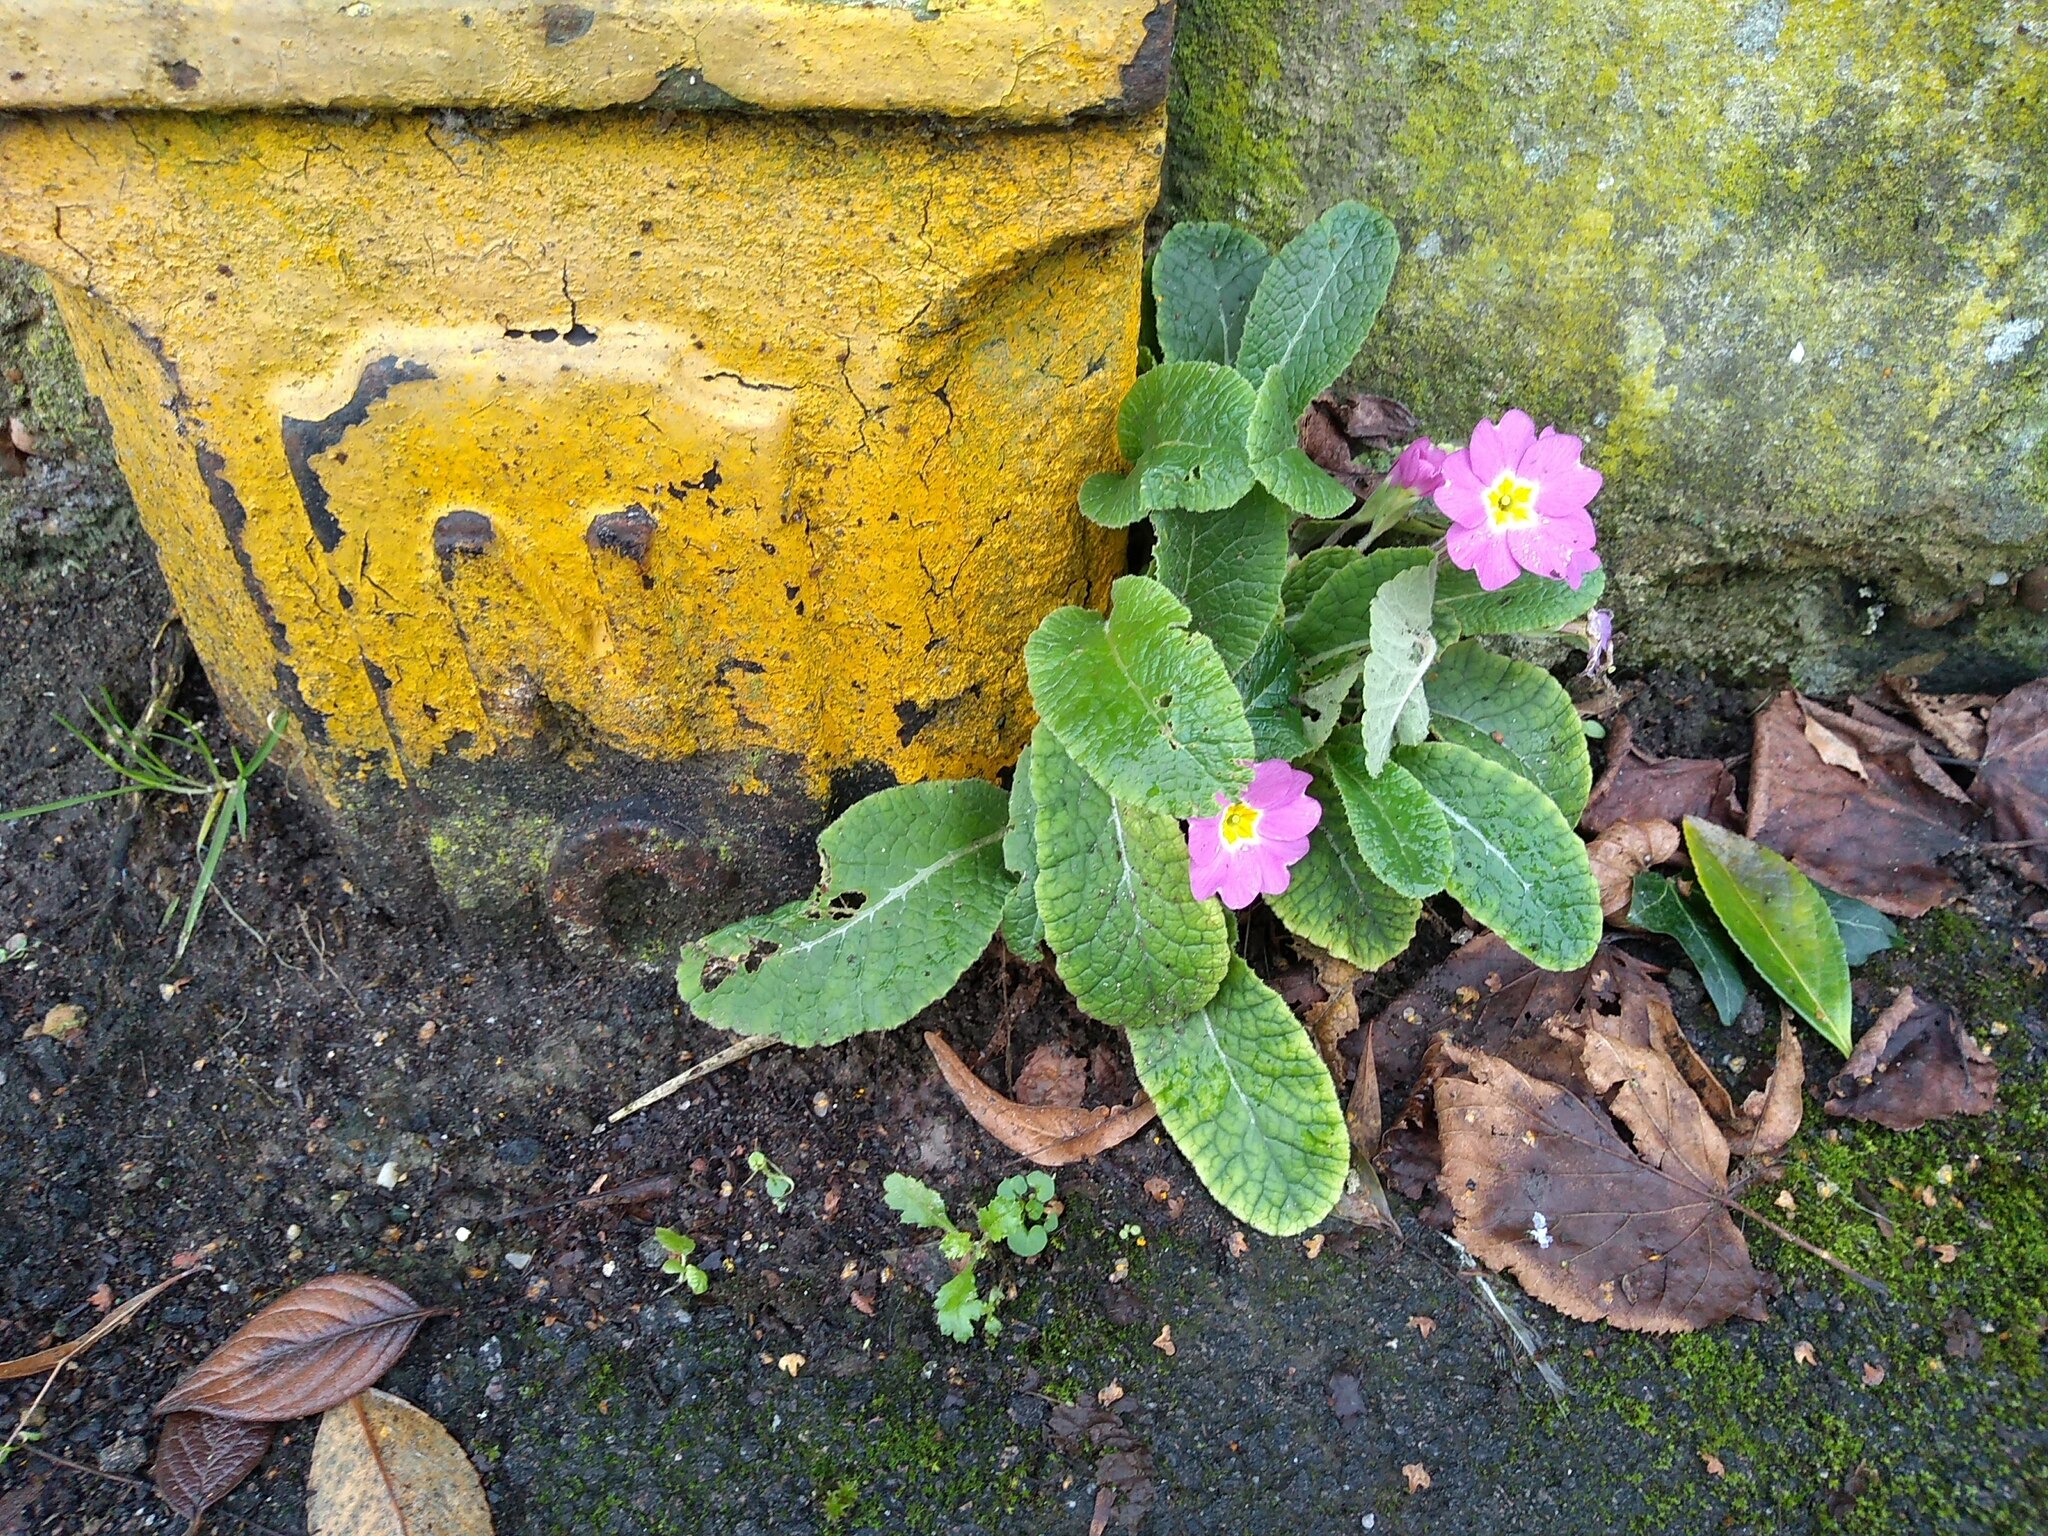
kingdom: Plantae
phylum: Tracheophyta
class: Magnoliopsida
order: Ericales
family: Primulaceae
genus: Primula
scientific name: Primula vulgaris
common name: Primrose
